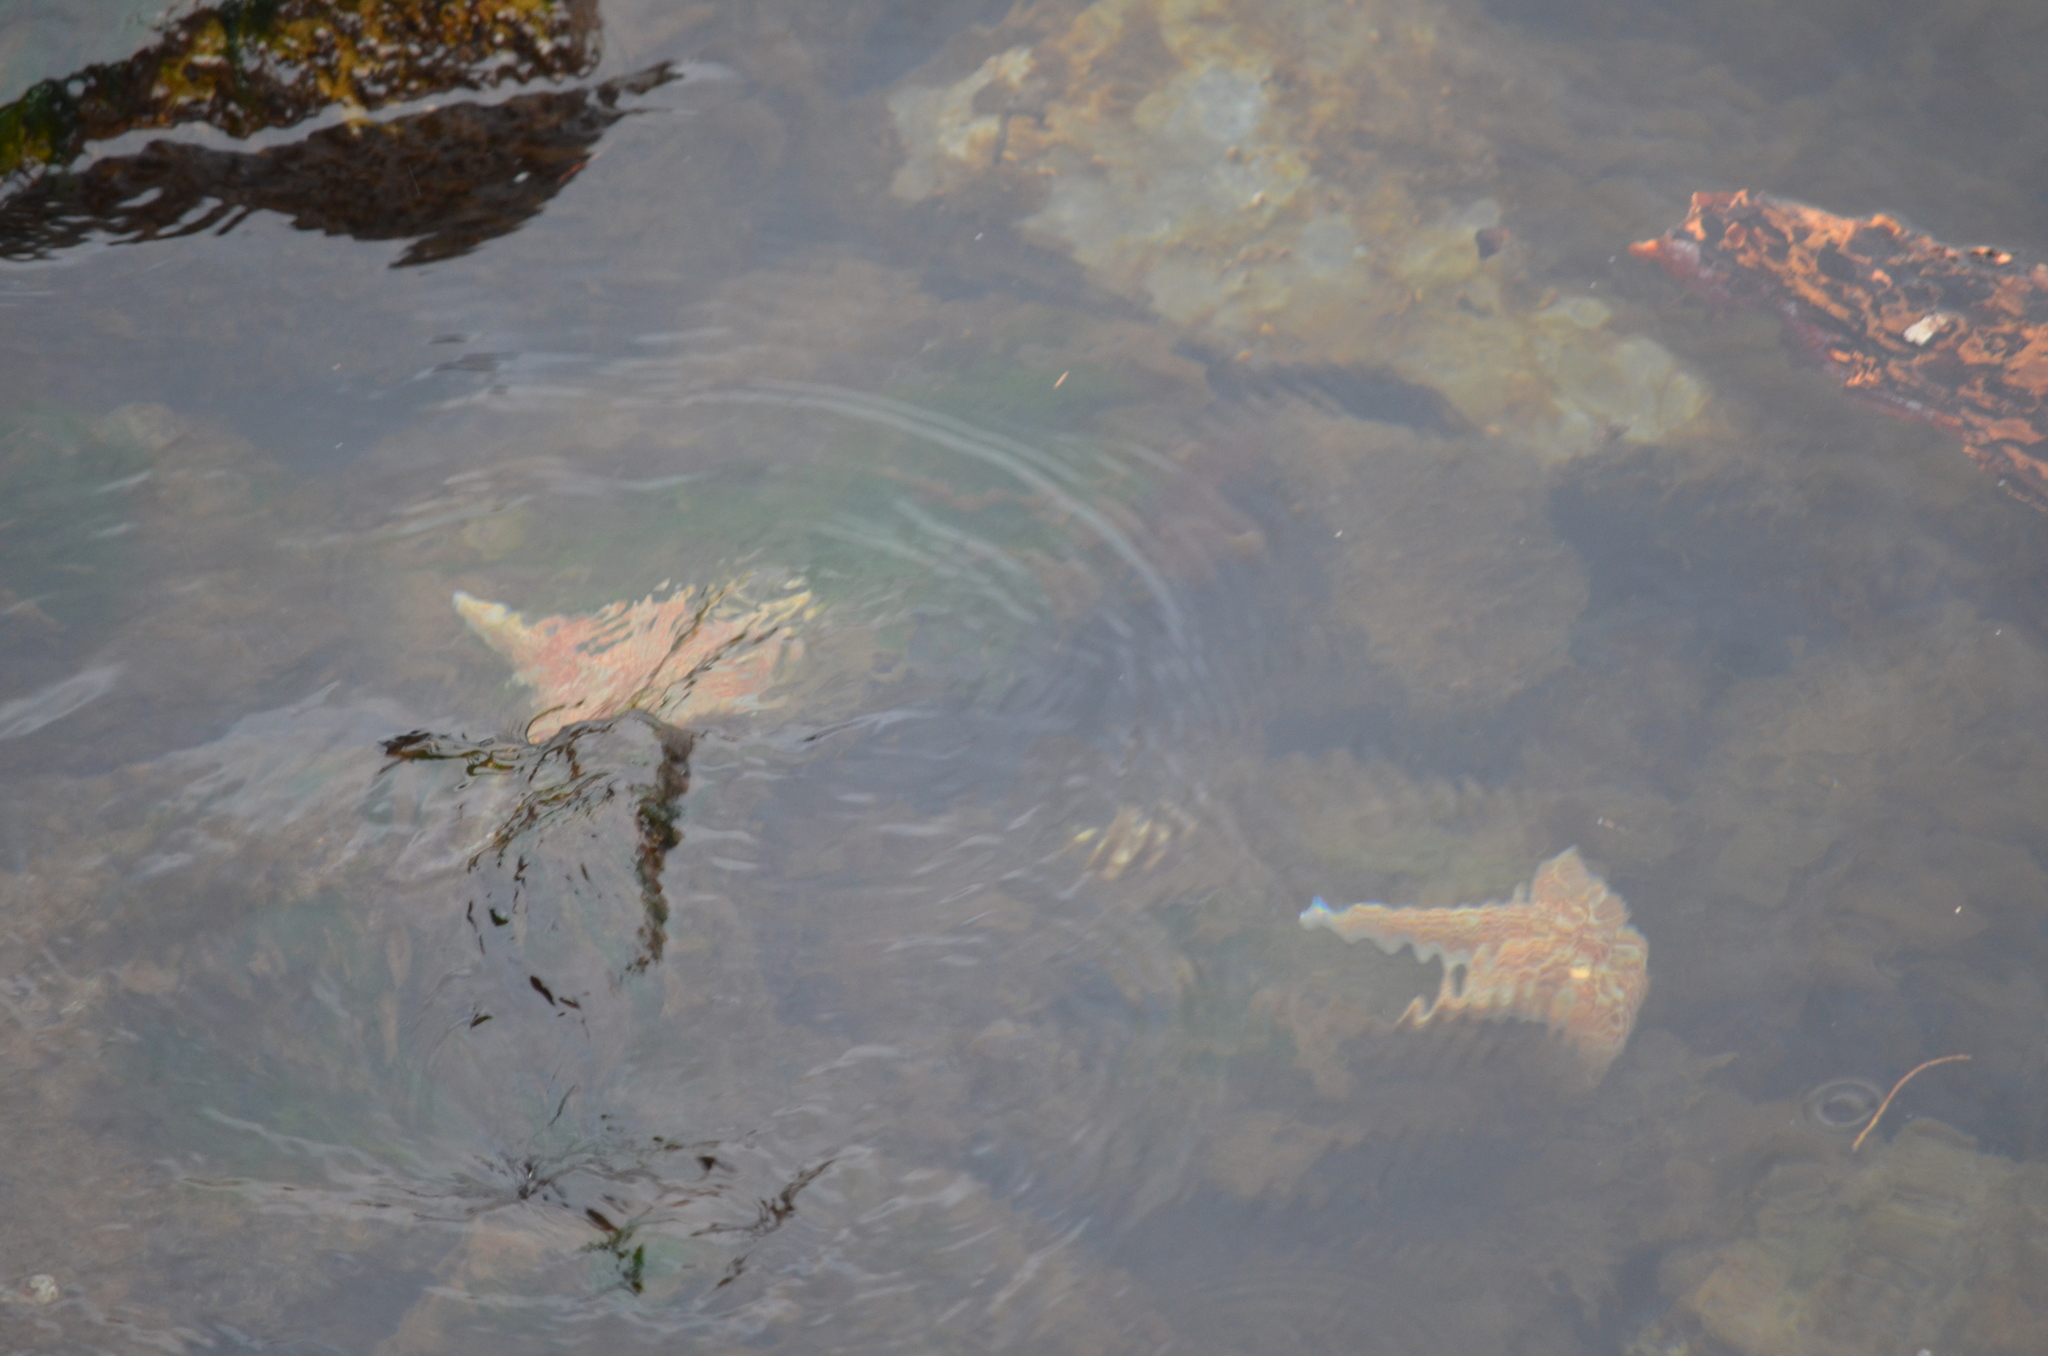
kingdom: Animalia
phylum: Echinodermata
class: Asteroidea
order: Valvatida
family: Asteropseidae
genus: Dermasterias
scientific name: Dermasterias imbricata
